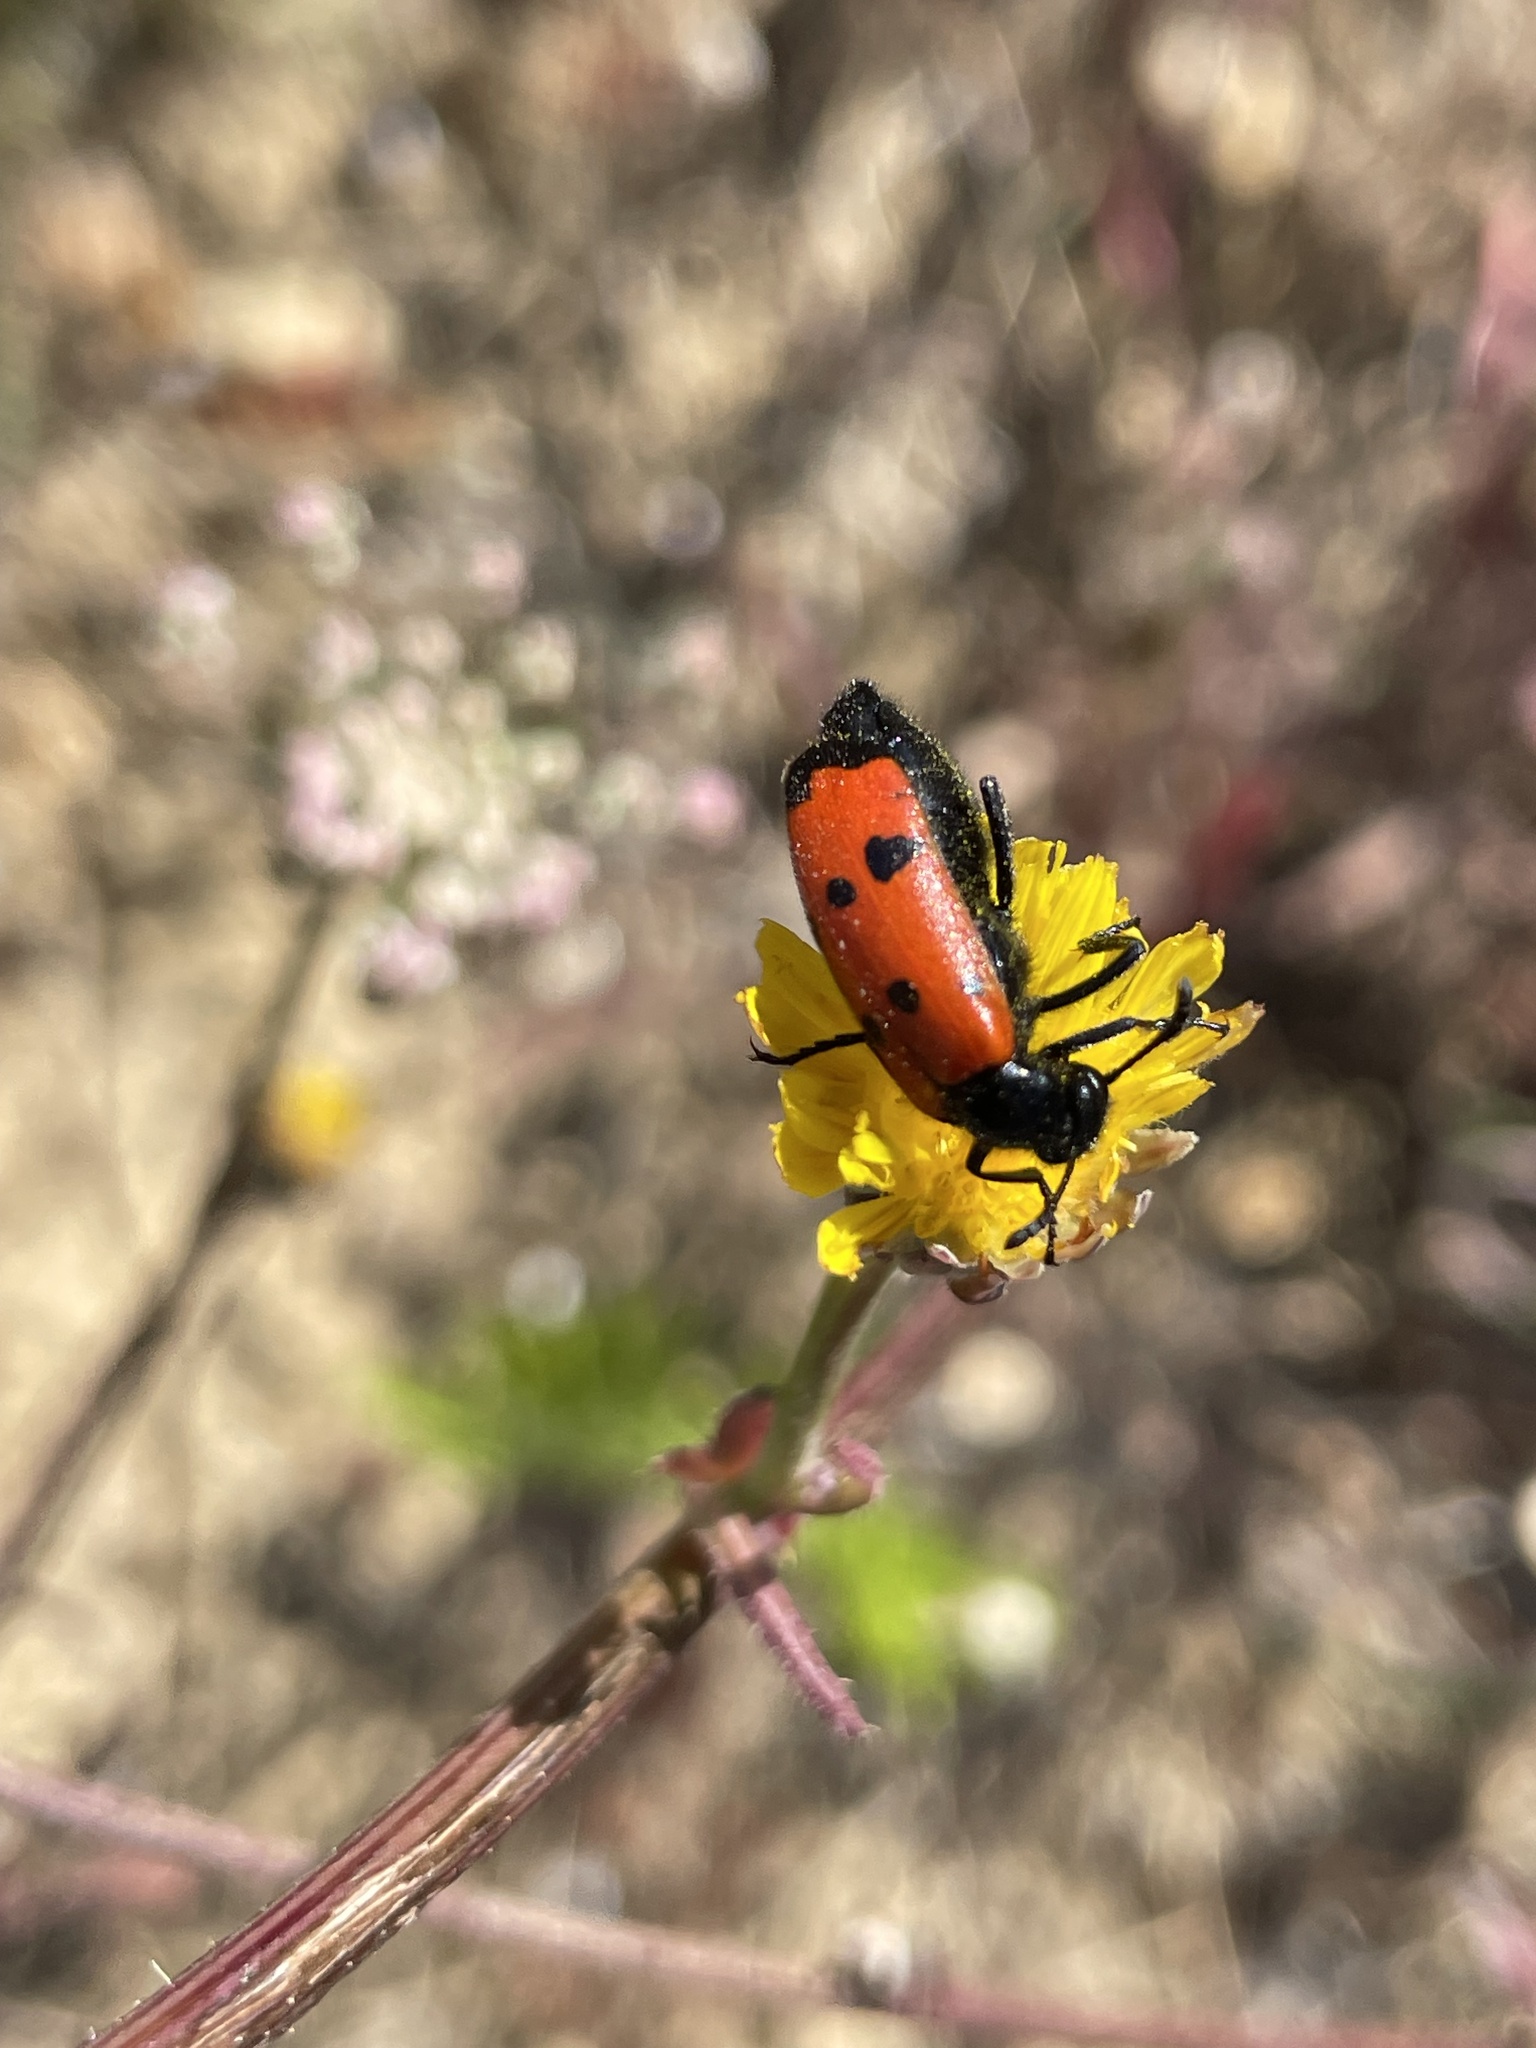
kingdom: Animalia
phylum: Arthropoda
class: Insecta
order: Coleoptera
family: Meloidae
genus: Mylabris
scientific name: Mylabris quadripunctata
